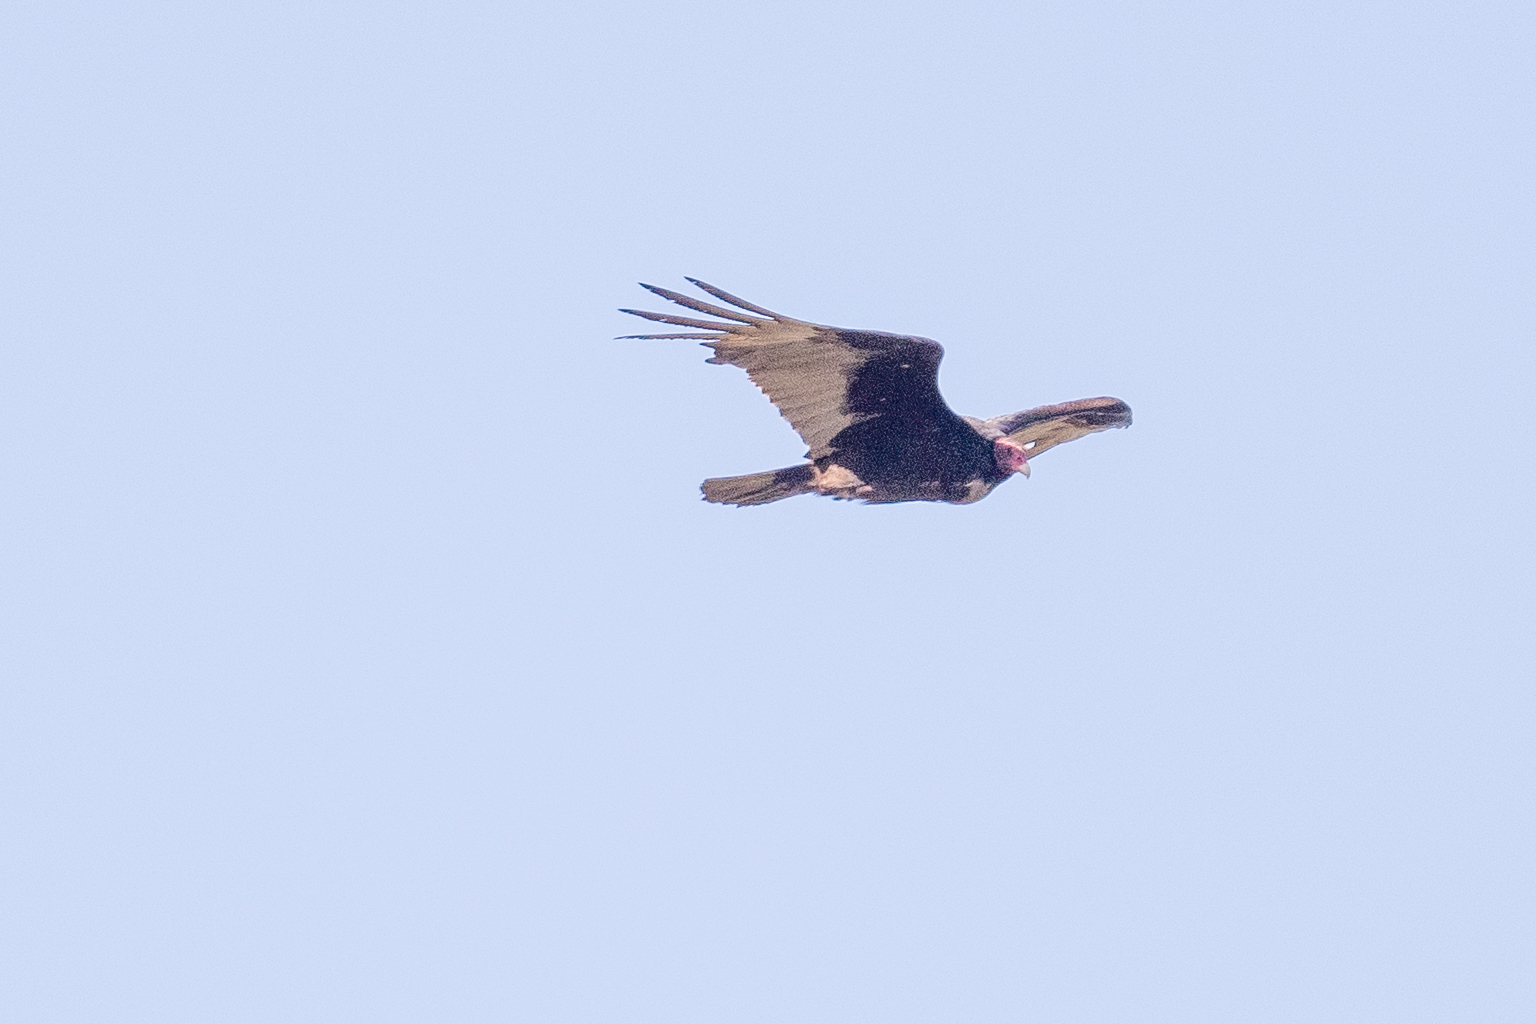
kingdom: Animalia
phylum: Chordata
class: Aves
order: Accipitriformes
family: Cathartidae
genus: Cathartes
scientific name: Cathartes aura
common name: Turkey vulture
